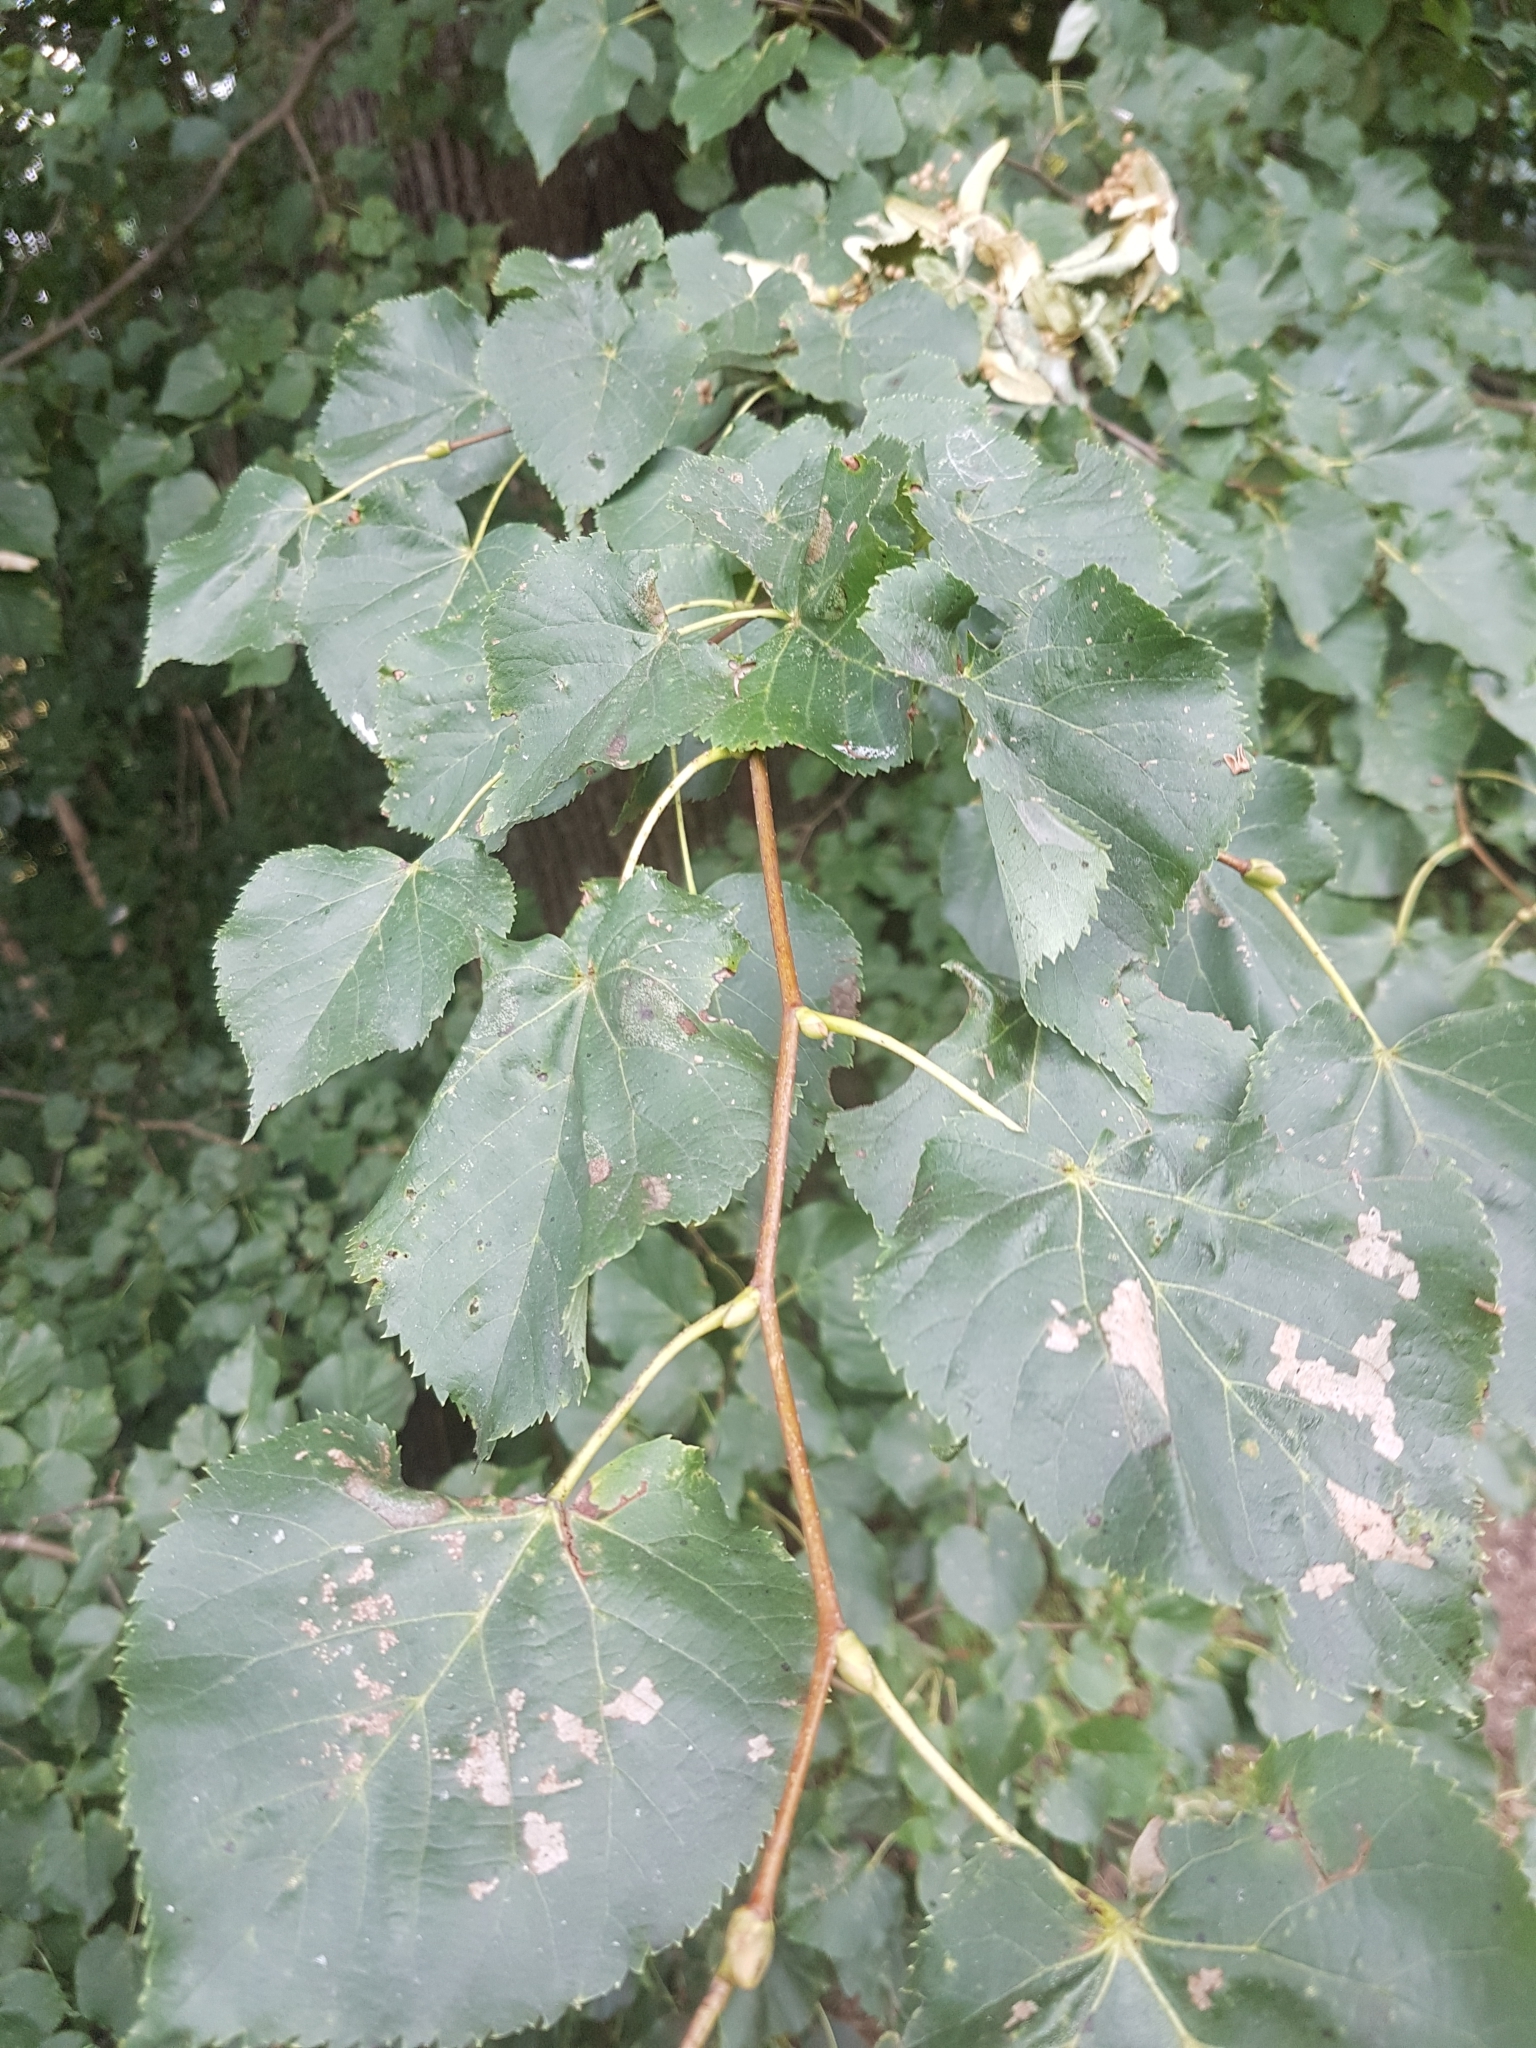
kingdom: Plantae
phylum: Tracheophyta
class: Magnoliopsida
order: Malvales
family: Malvaceae
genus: Tilia
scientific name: Tilia cordata
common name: Small-leaved lime
